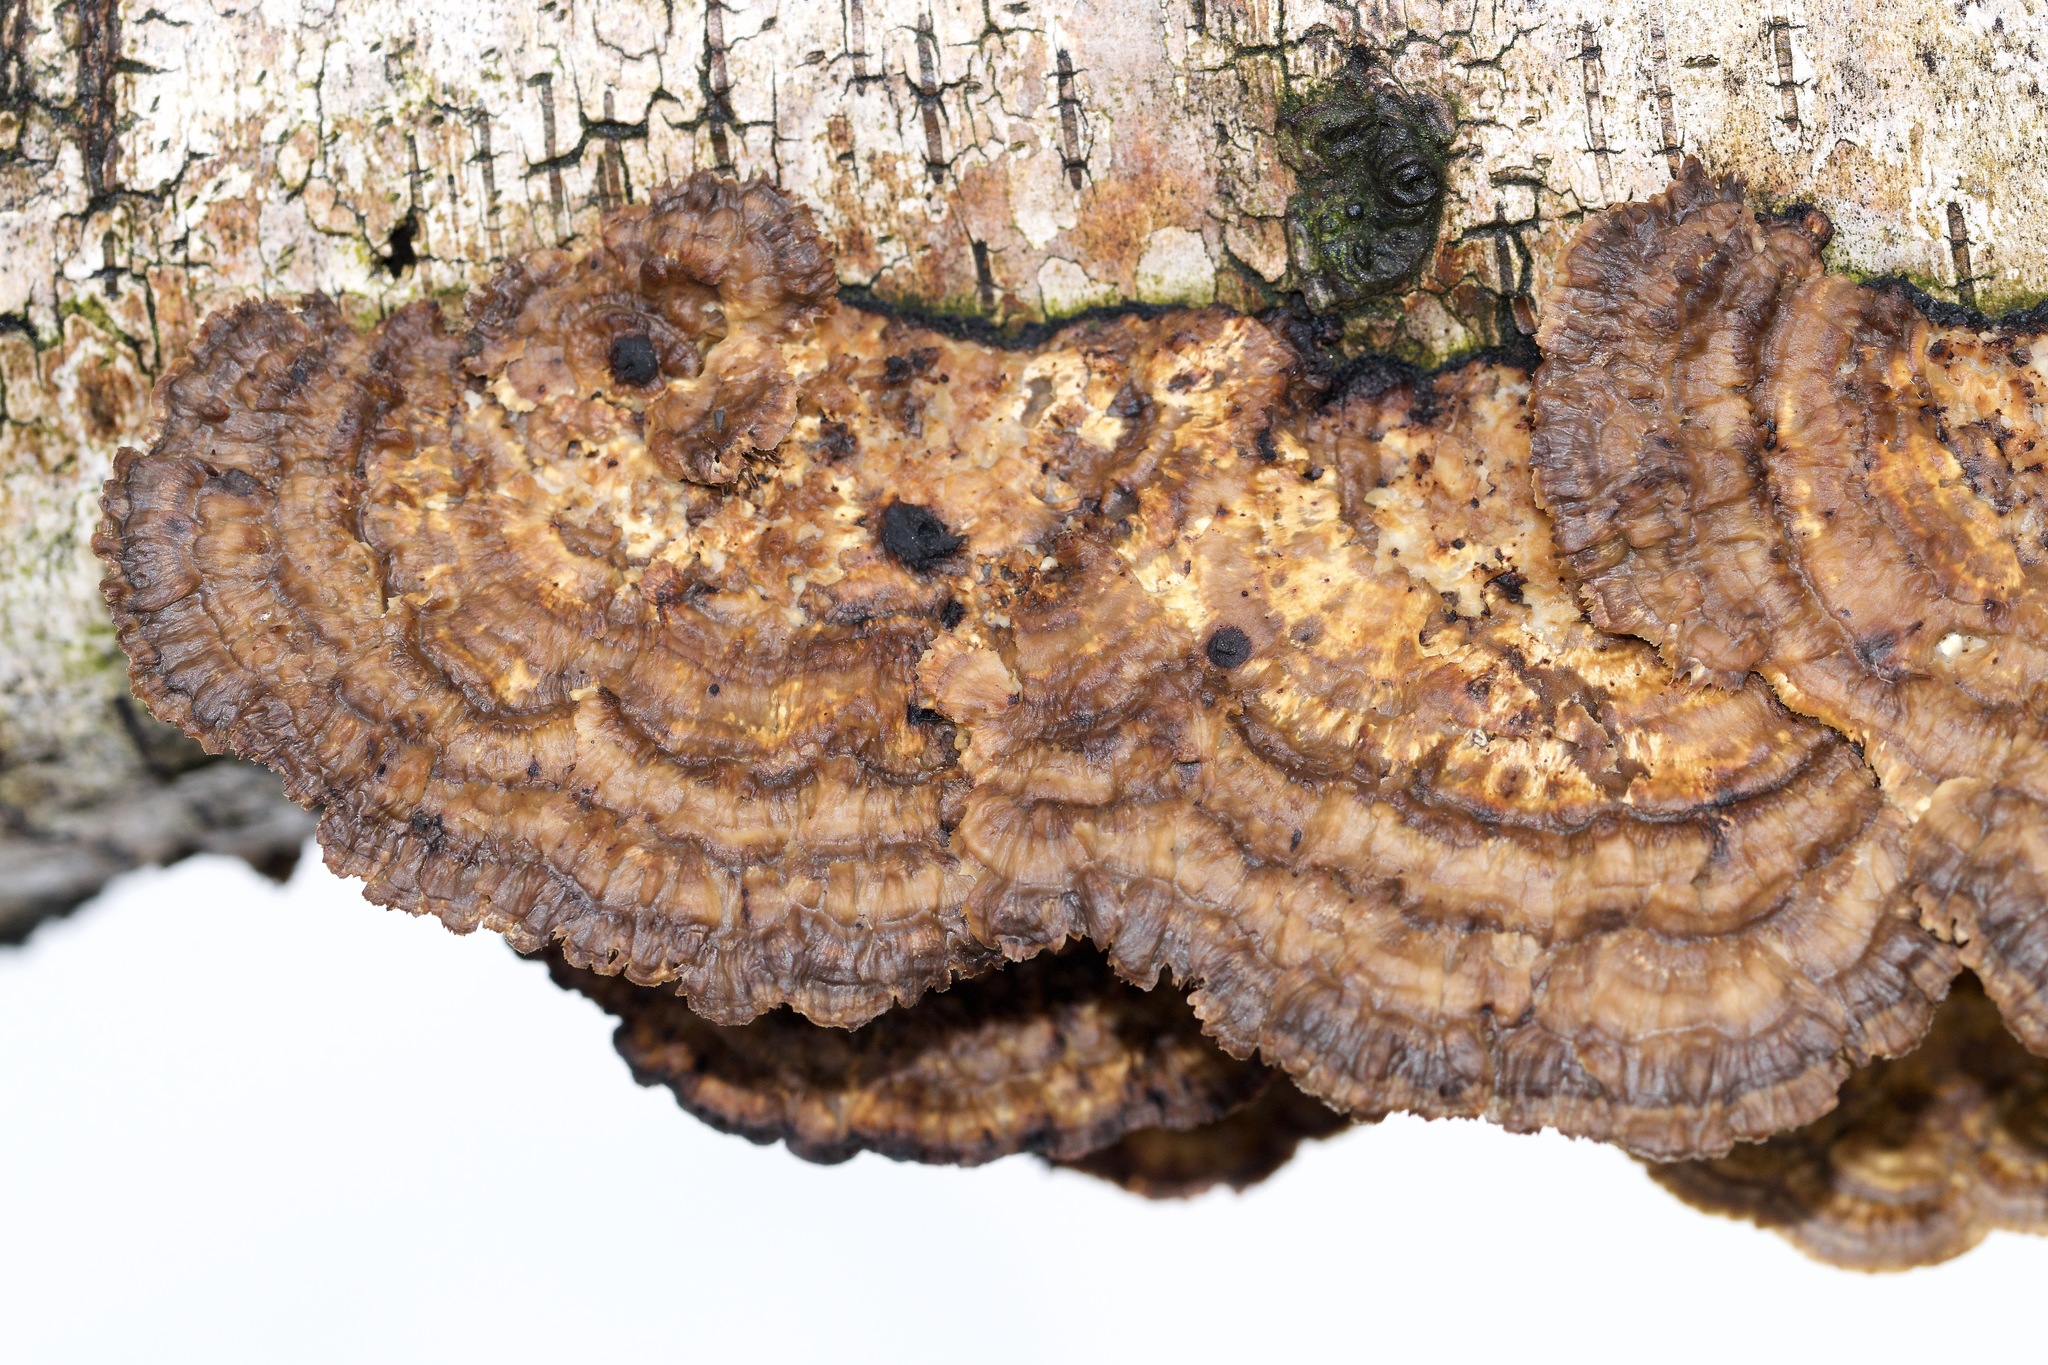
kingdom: Fungi
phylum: Basidiomycota
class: Agaricomycetes
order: Polyporales
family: Polyporaceae
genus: Daedaleopsis
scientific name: Daedaleopsis confragosa
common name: Blushing bracket
